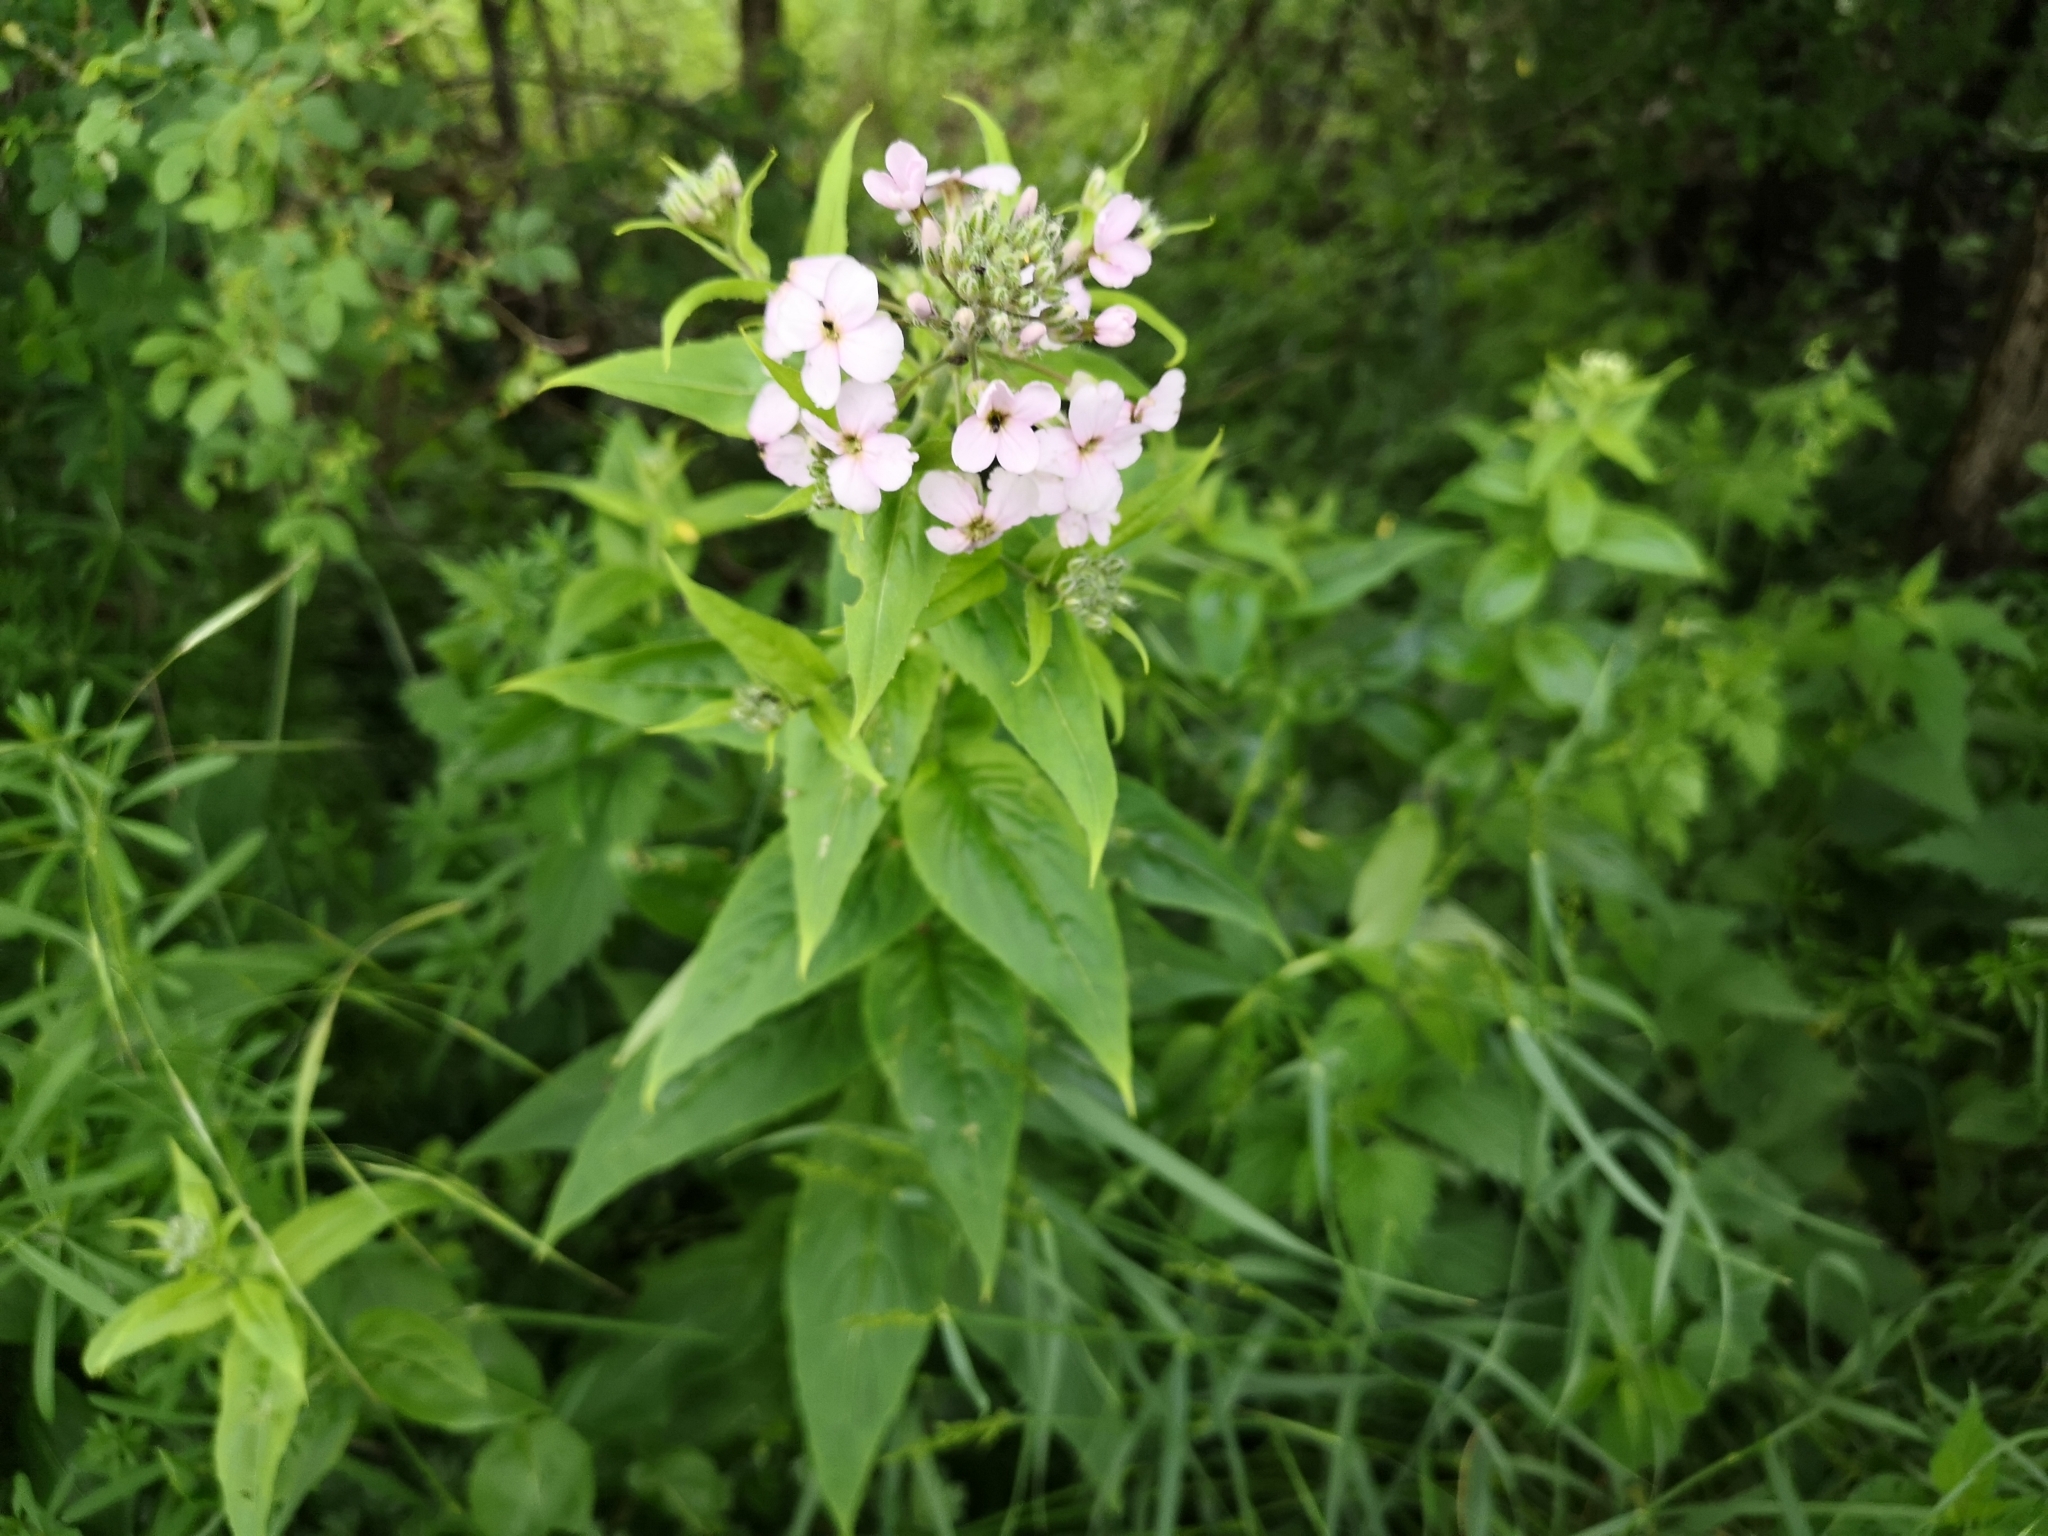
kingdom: Plantae
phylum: Tracheophyta
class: Magnoliopsida
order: Brassicales
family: Brassicaceae
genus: Hesperis
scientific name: Hesperis matronalis
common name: Dame's-violet
